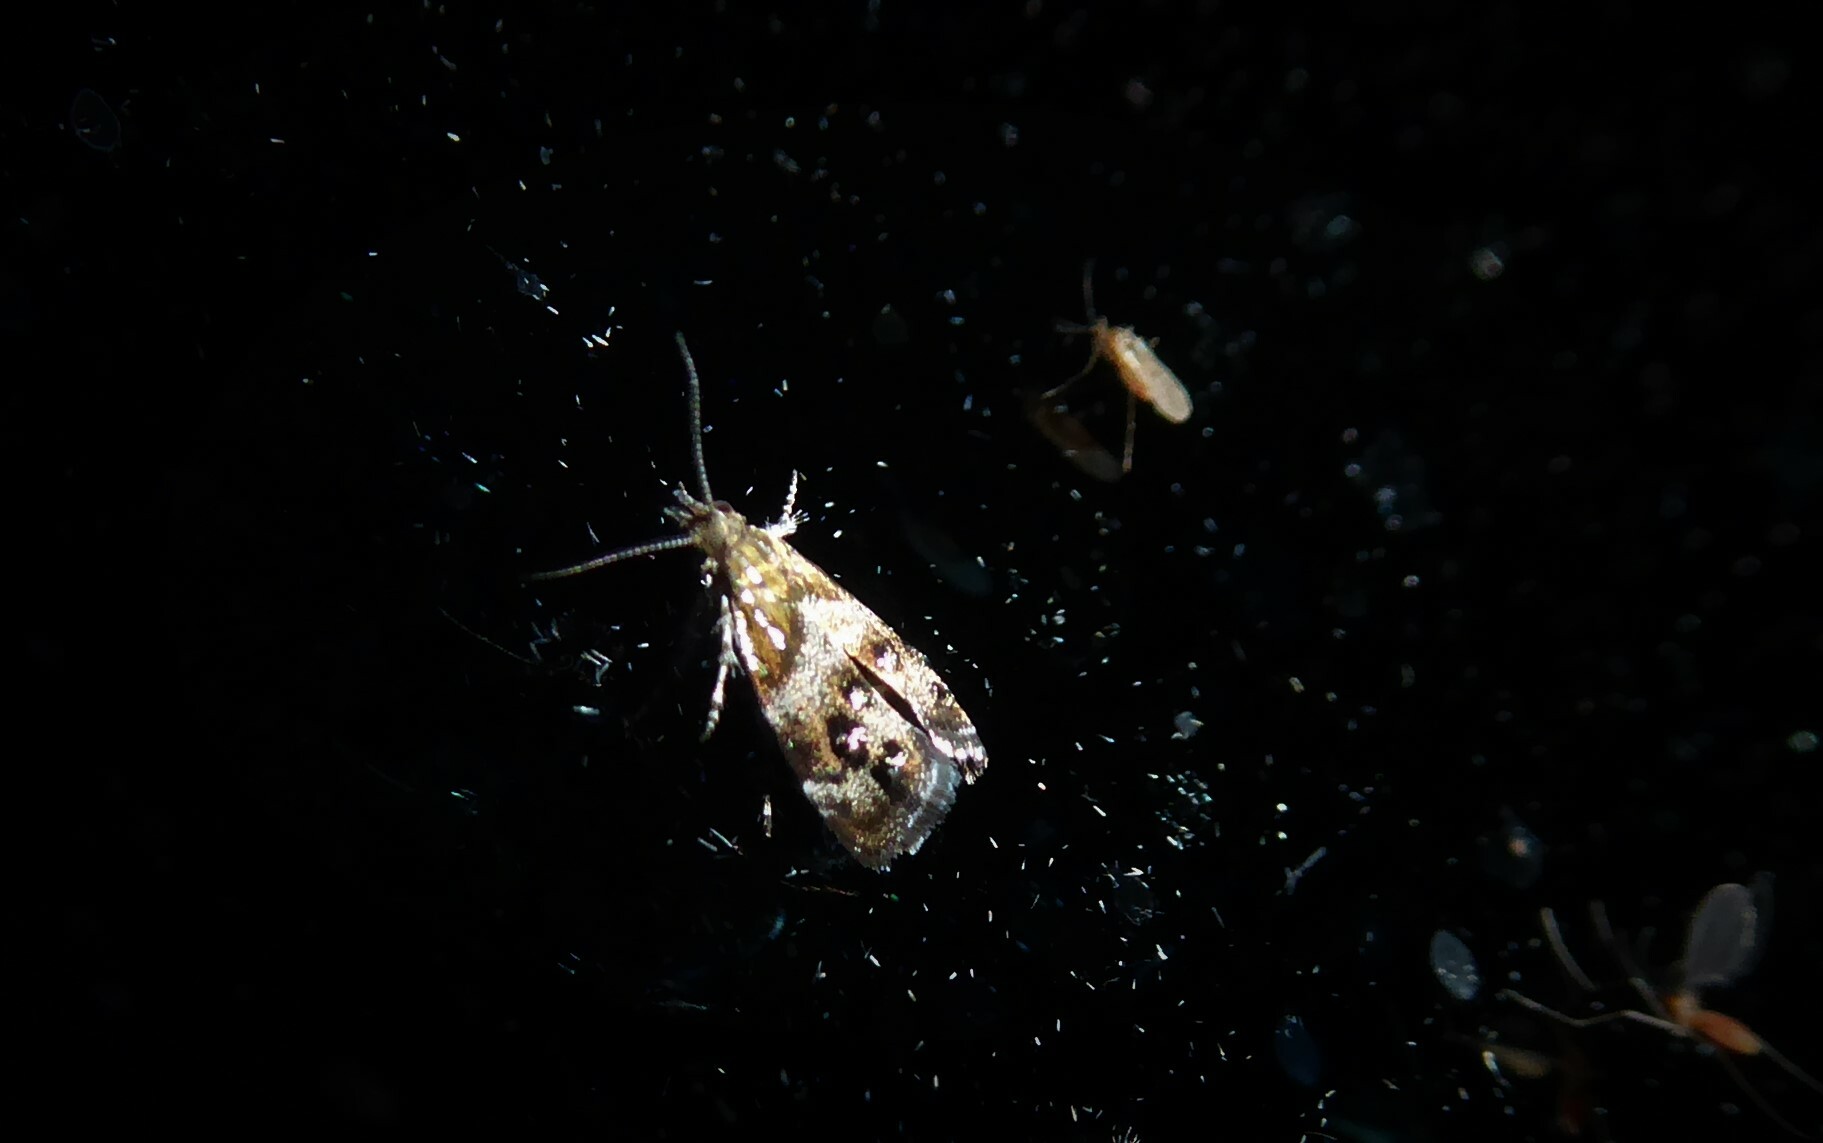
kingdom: Animalia
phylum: Arthropoda
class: Insecta
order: Lepidoptera
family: Choreutidae
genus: Tebenna
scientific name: Tebenna micalis
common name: Vagrant twitcher
